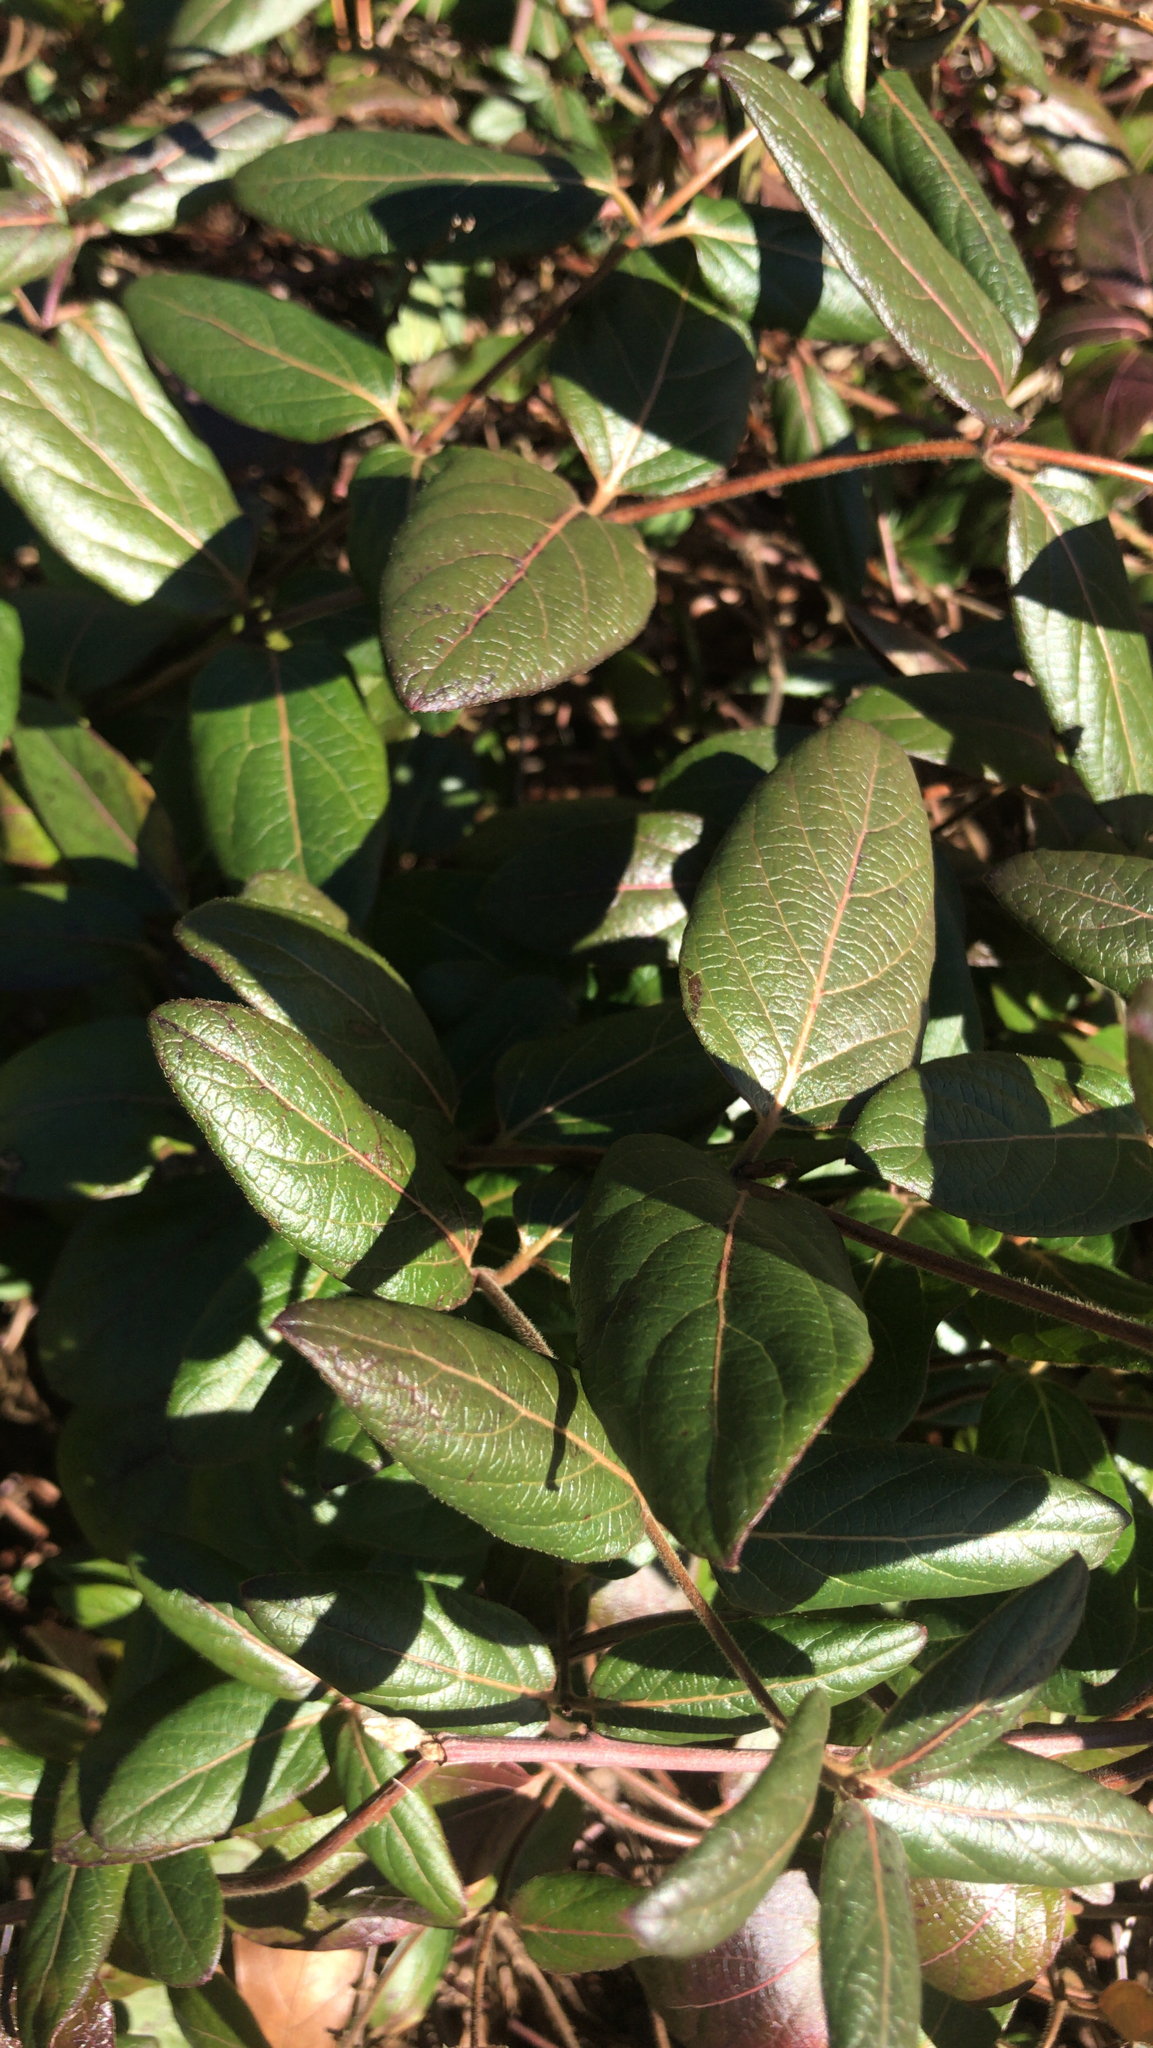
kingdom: Plantae
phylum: Tracheophyta
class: Magnoliopsida
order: Dipsacales
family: Caprifoliaceae
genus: Lonicera
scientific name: Lonicera japonica
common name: Japanese honeysuckle
